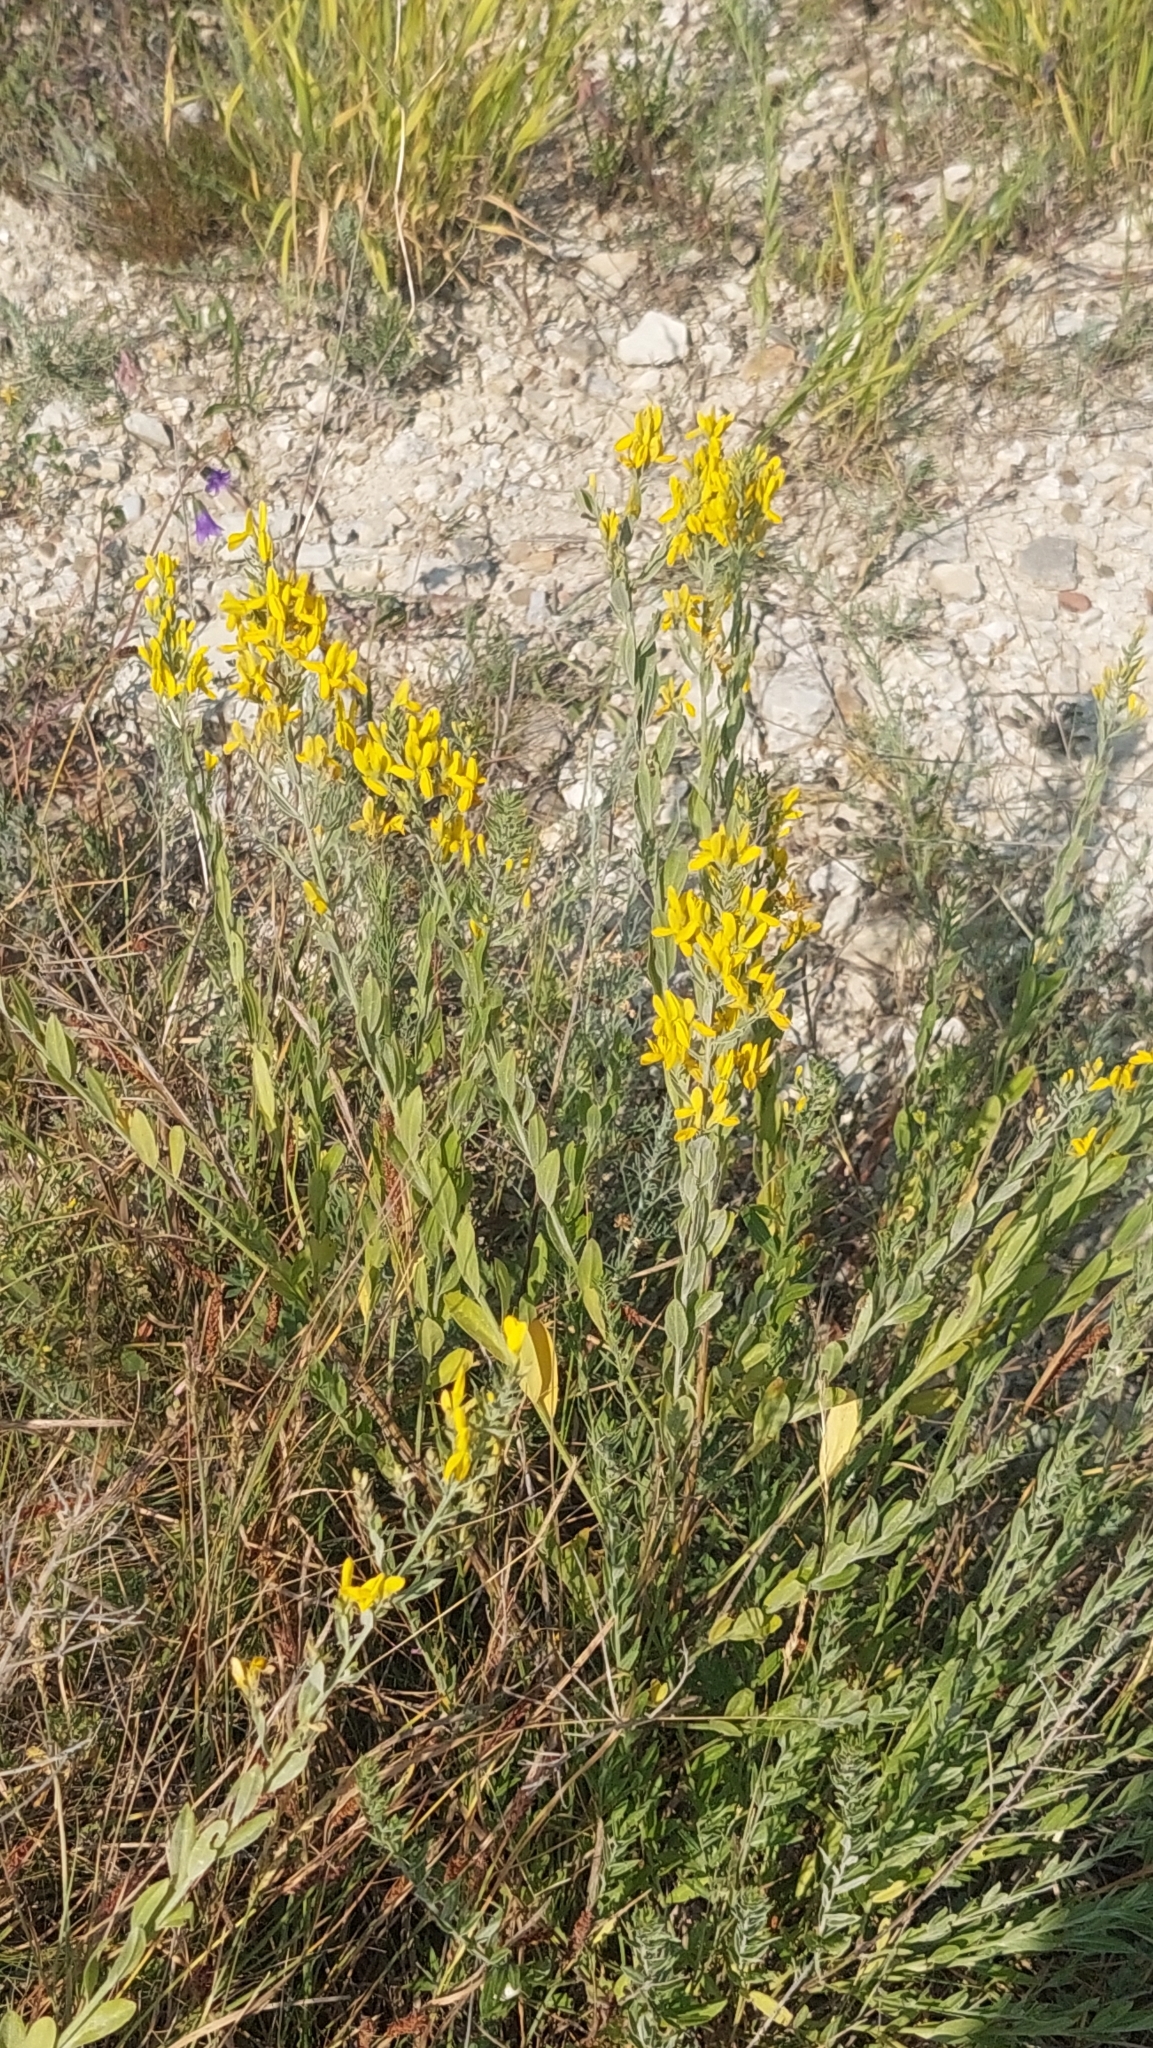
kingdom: Plantae
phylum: Tracheophyta
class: Magnoliopsida
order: Fabales
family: Fabaceae
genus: Genista
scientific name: Genista tinctoria
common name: Dyer's greenweed
